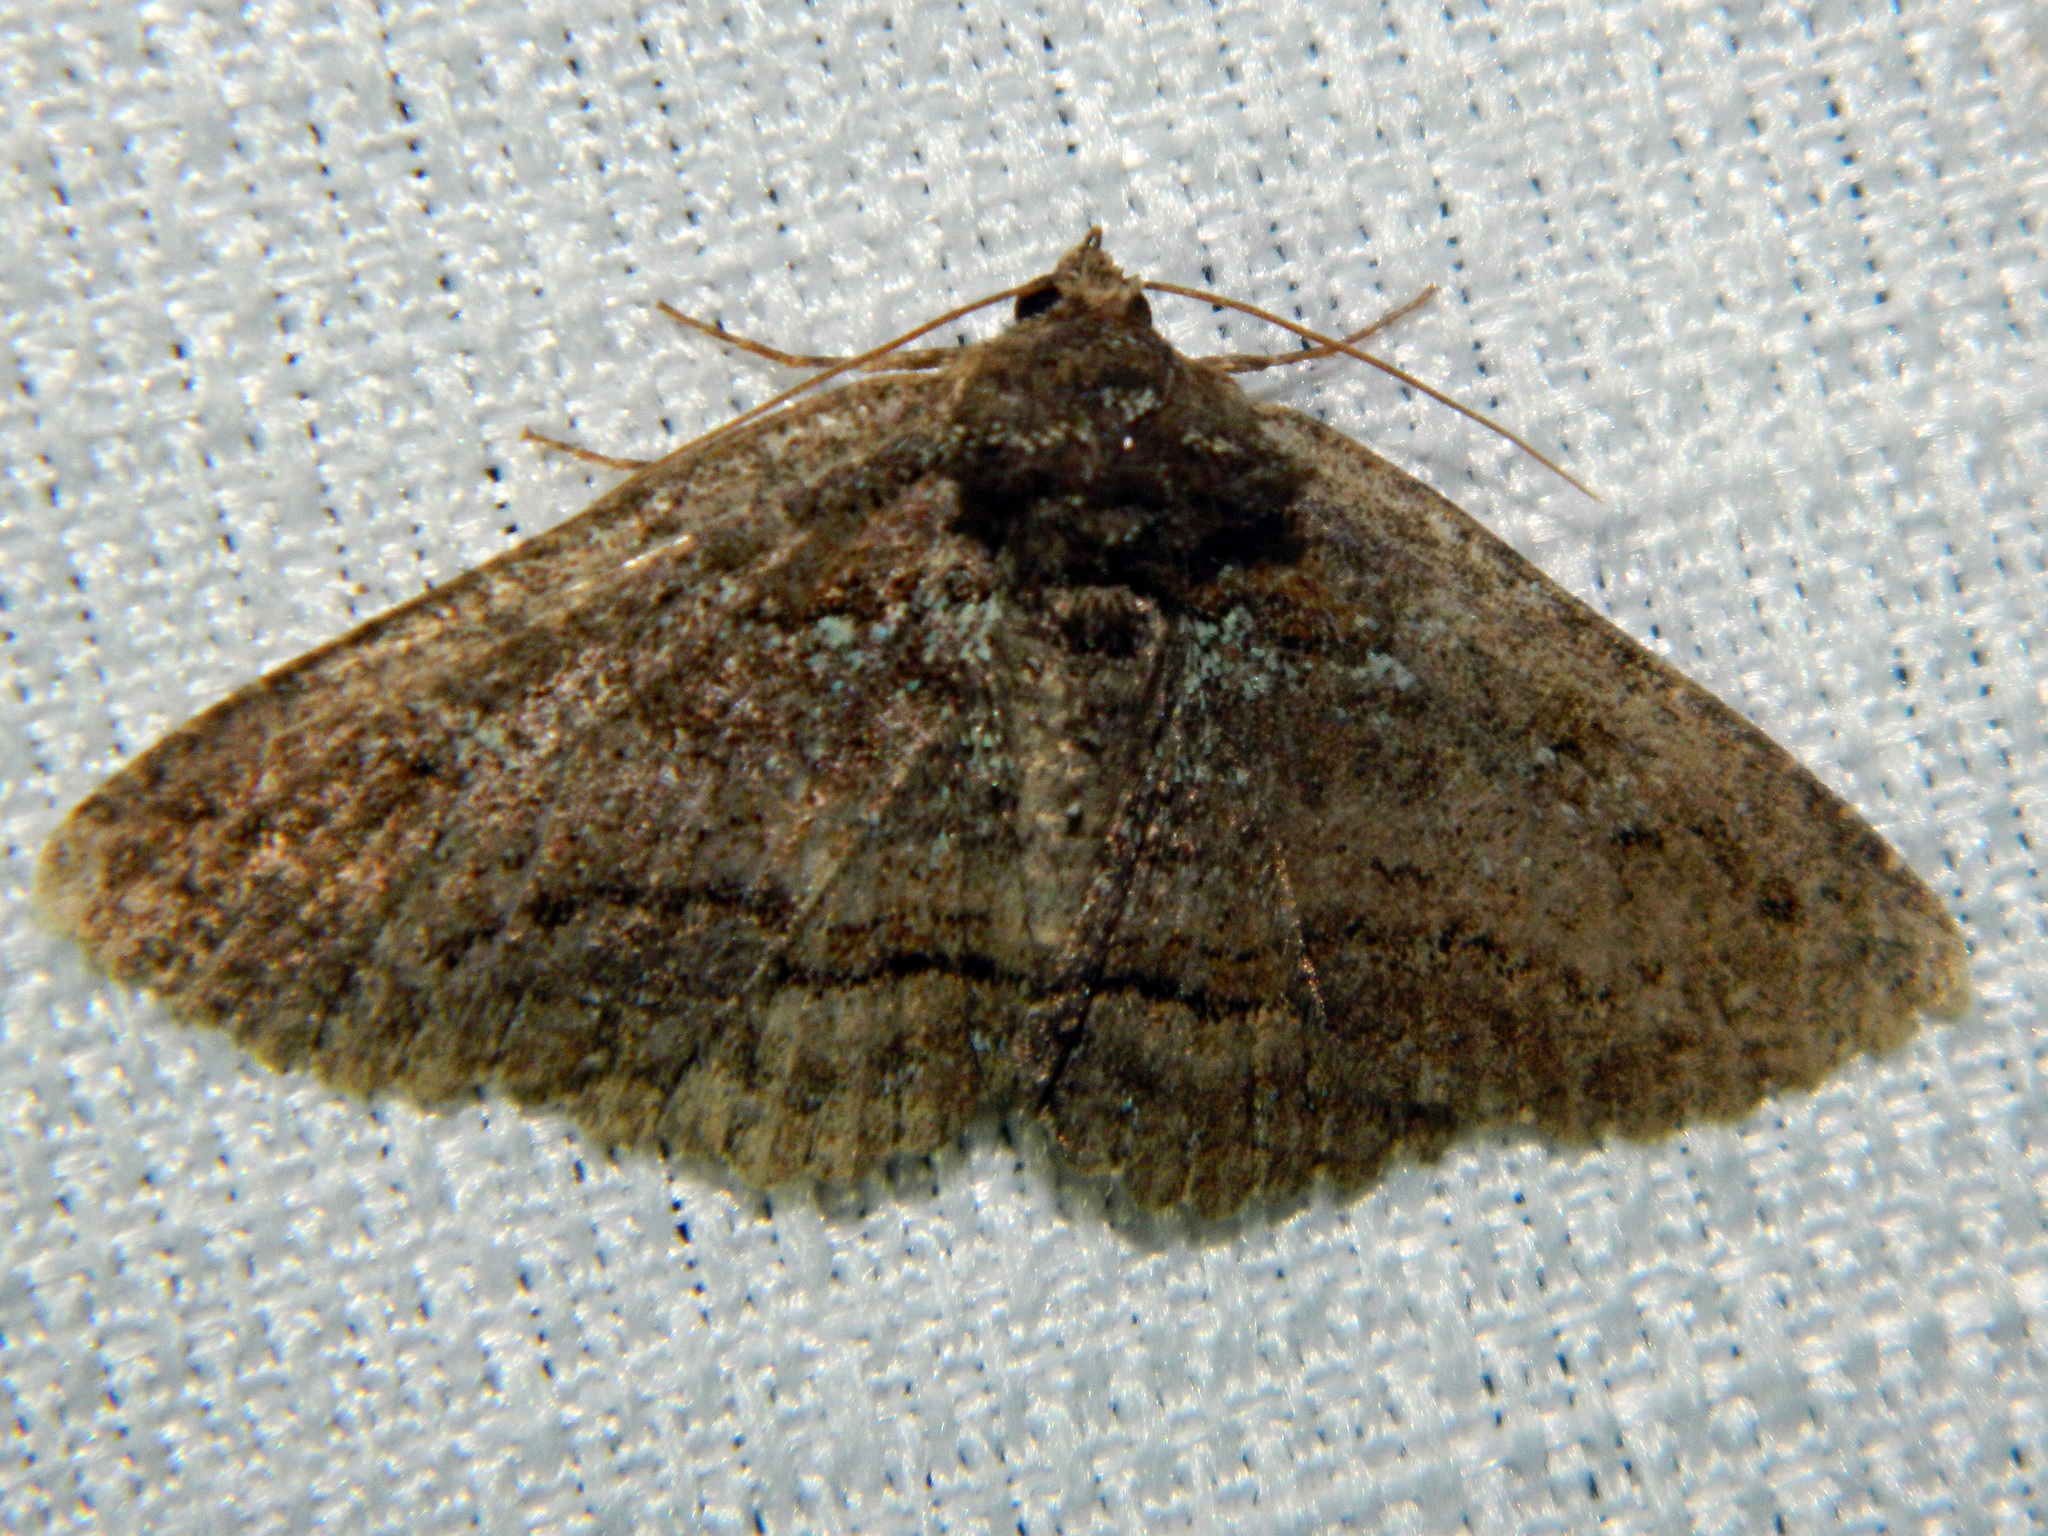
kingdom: Animalia
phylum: Arthropoda
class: Insecta
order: Lepidoptera
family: Erebidae
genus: Zale
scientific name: Zale aeruginosa
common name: Green-dusted zale moth
